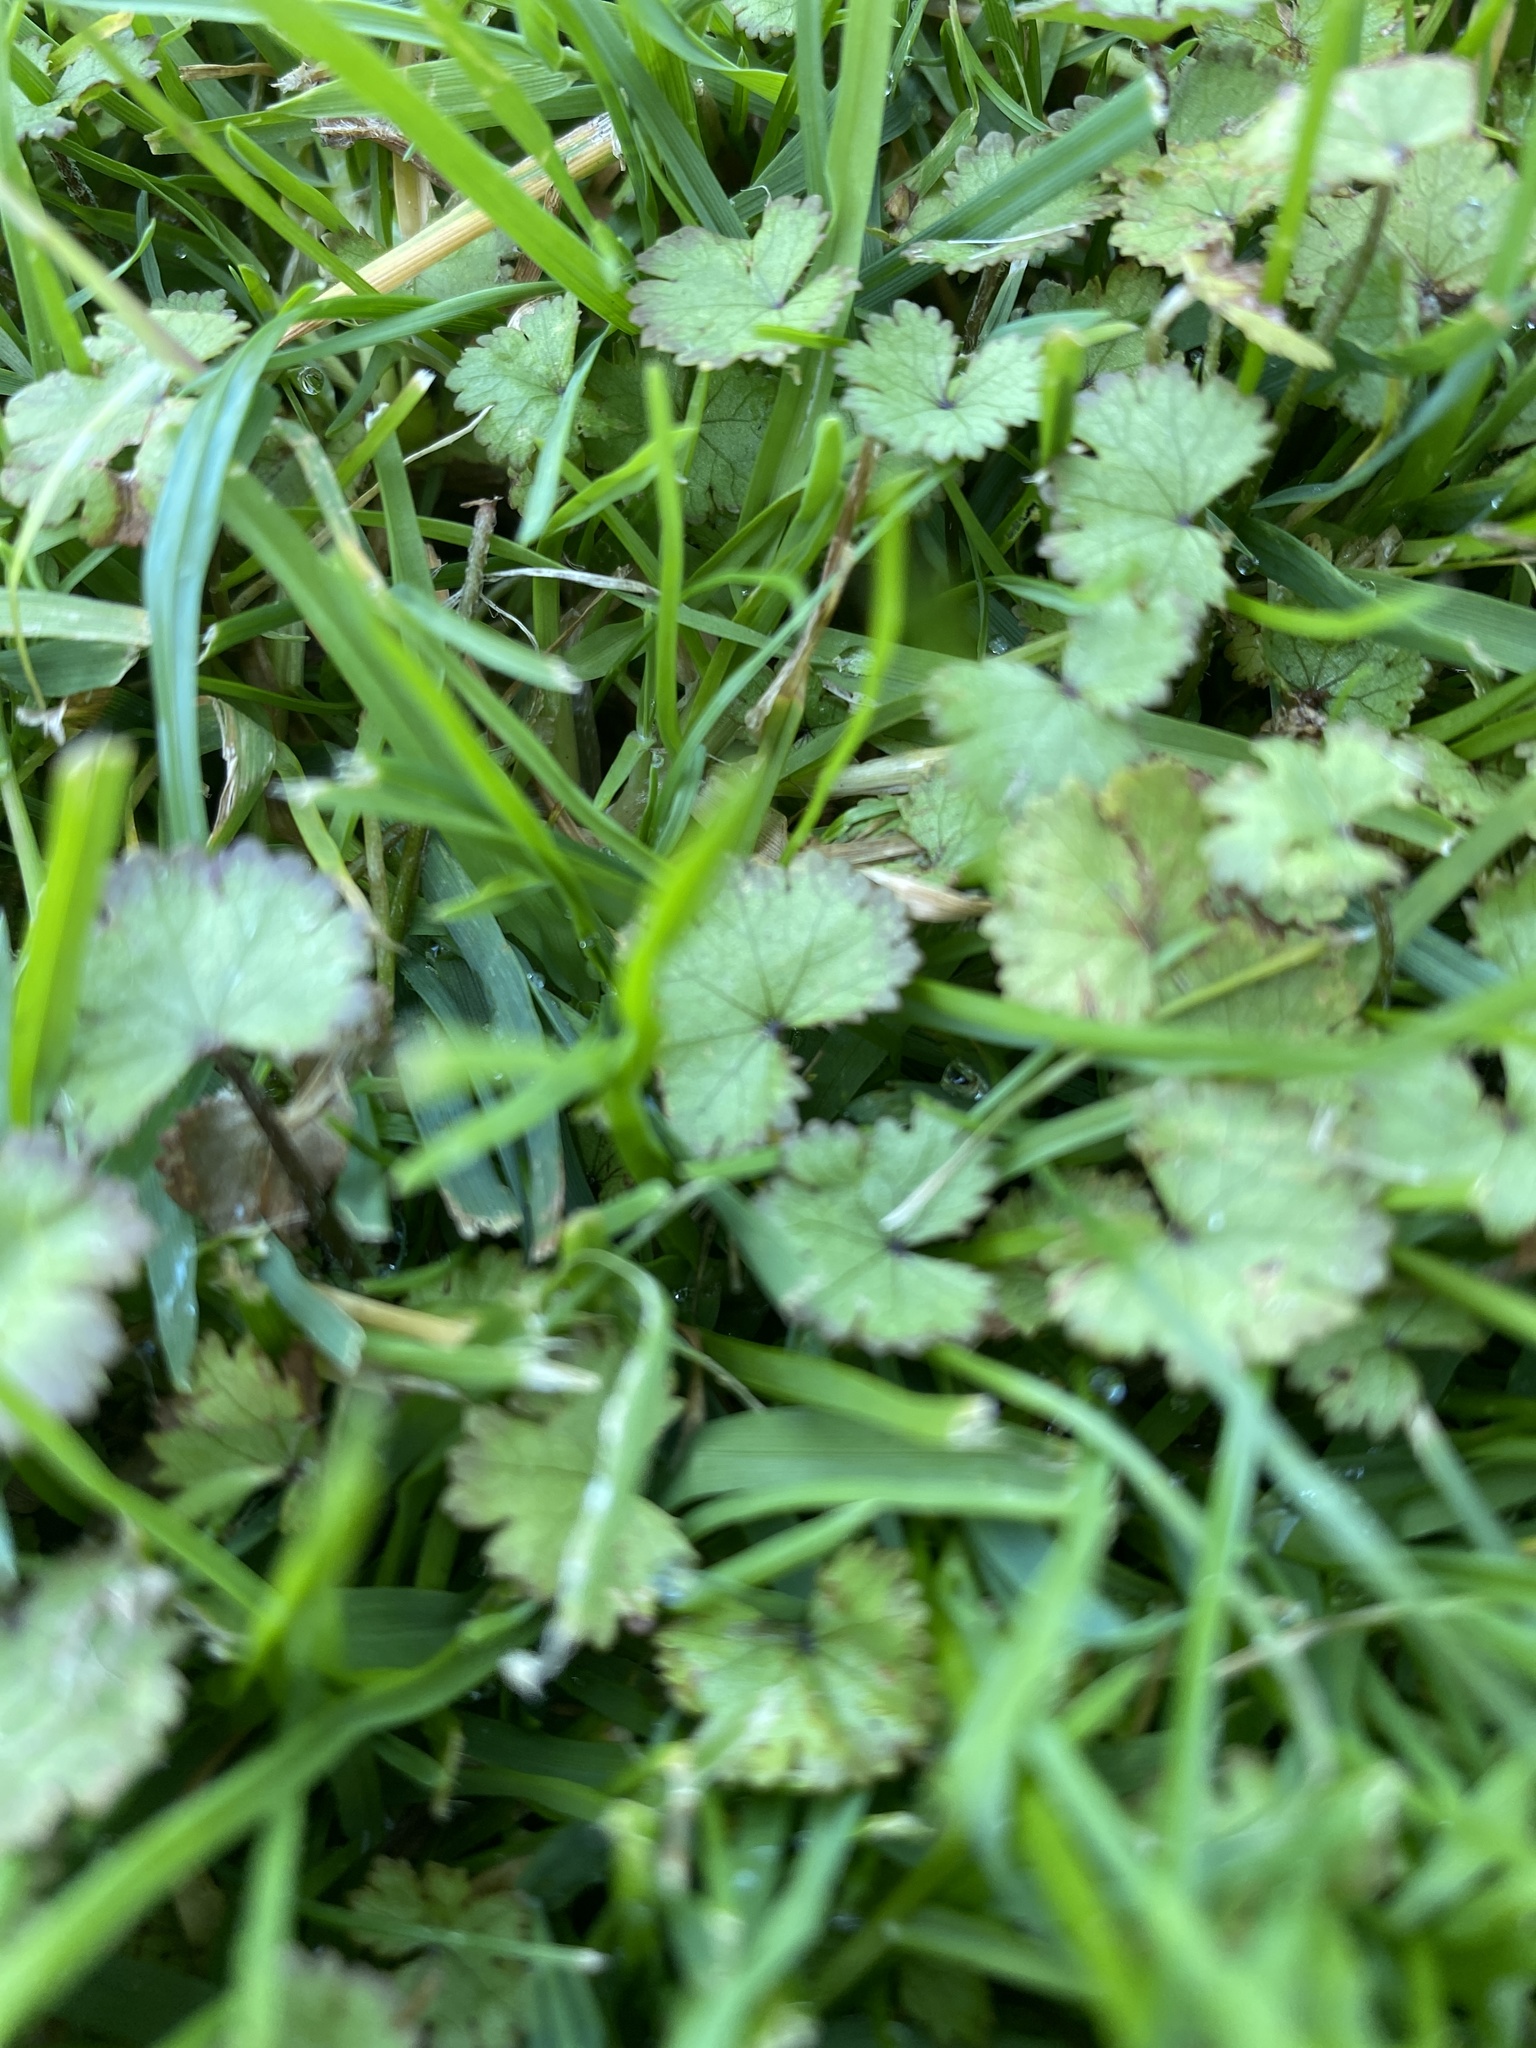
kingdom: Plantae
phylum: Tracheophyta
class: Magnoliopsida
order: Apiales
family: Araliaceae
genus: Hydrocotyle
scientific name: Hydrocotyle moschata
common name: Hairy pennywort
